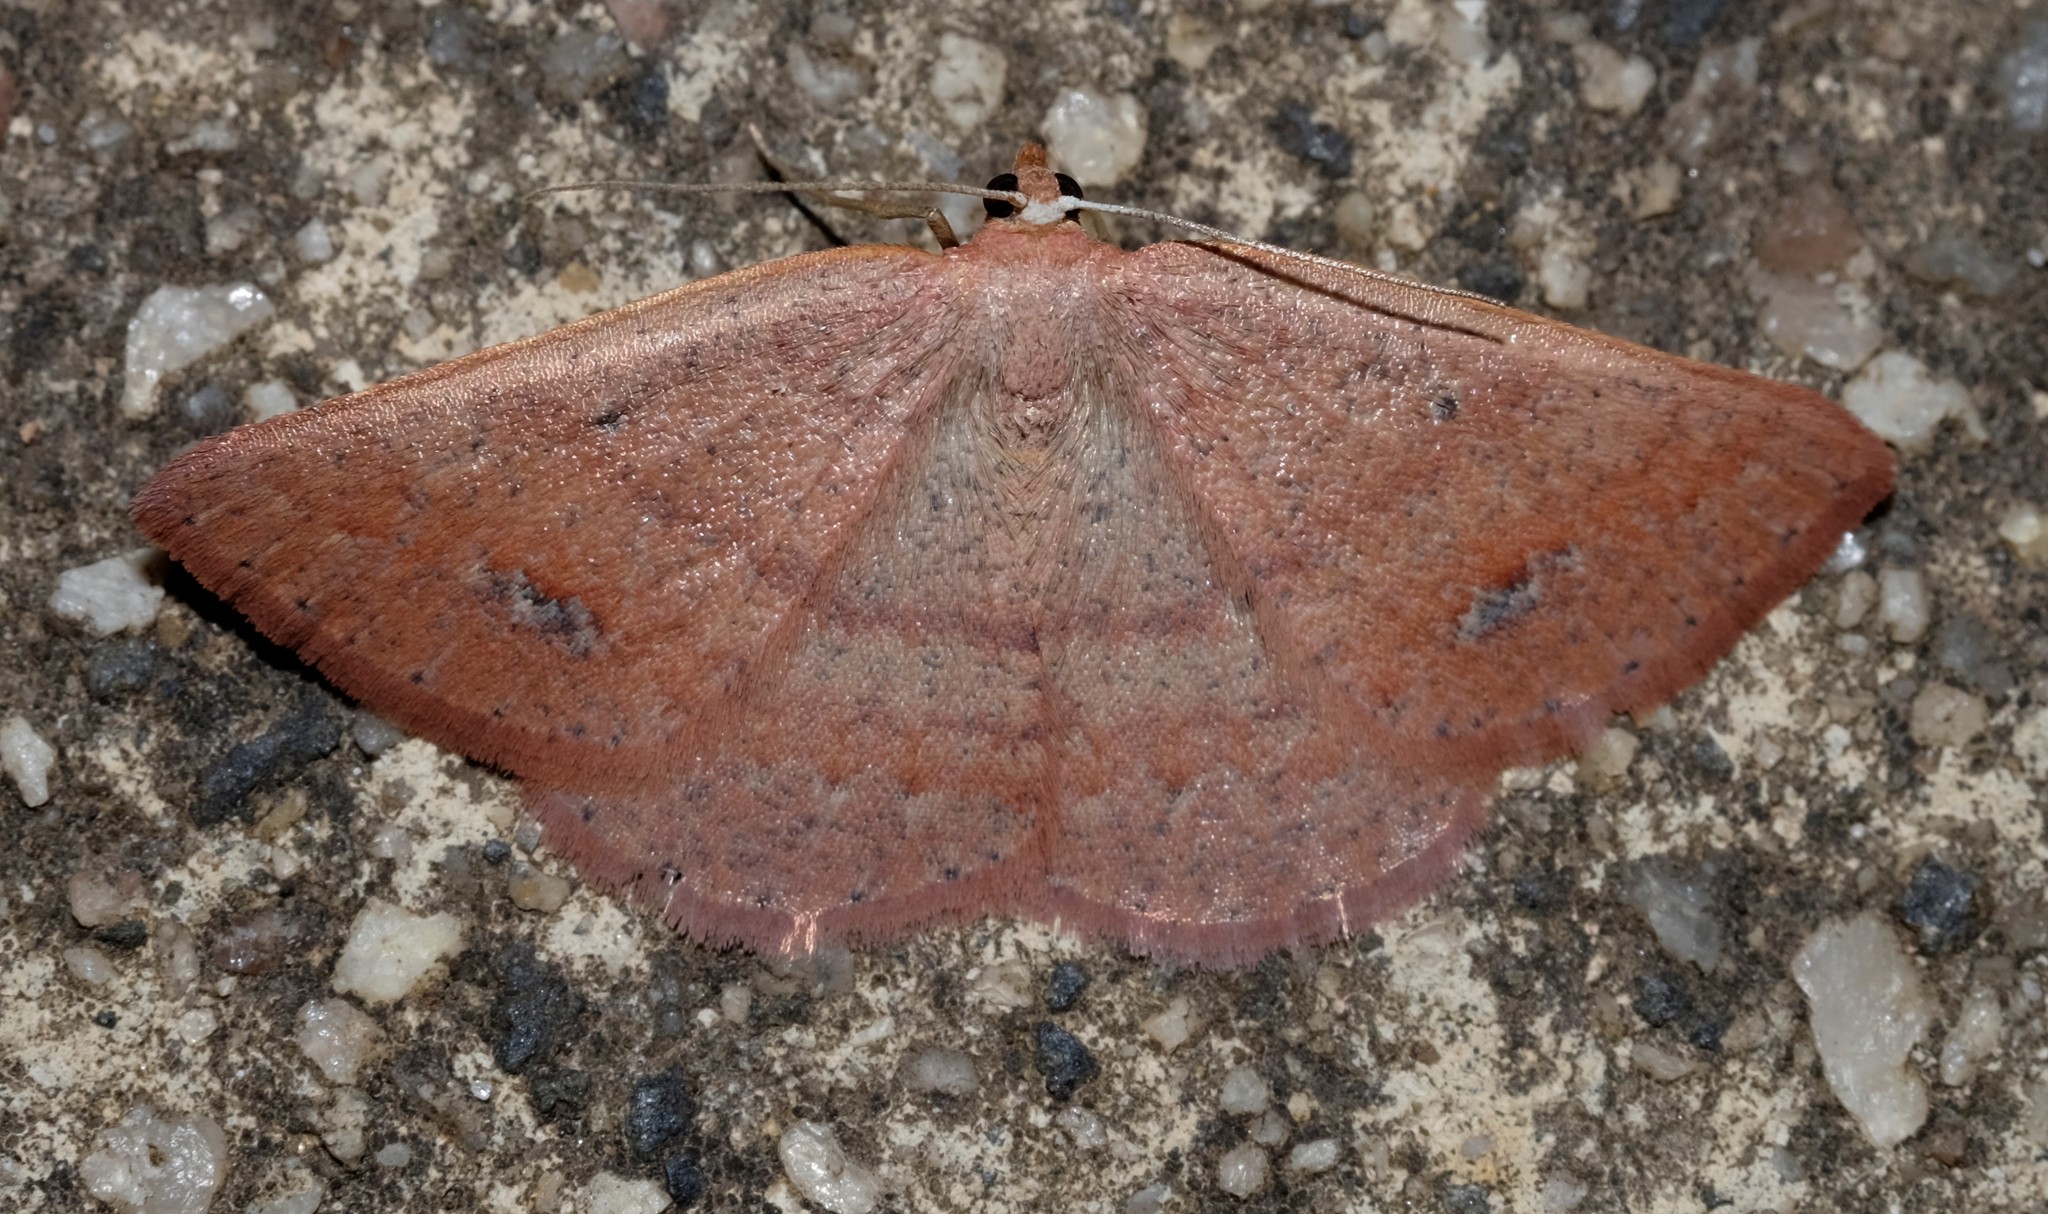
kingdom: Animalia
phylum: Arthropoda
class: Insecta
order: Lepidoptera
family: Geometridae
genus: Casbia
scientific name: Casbia oenias
